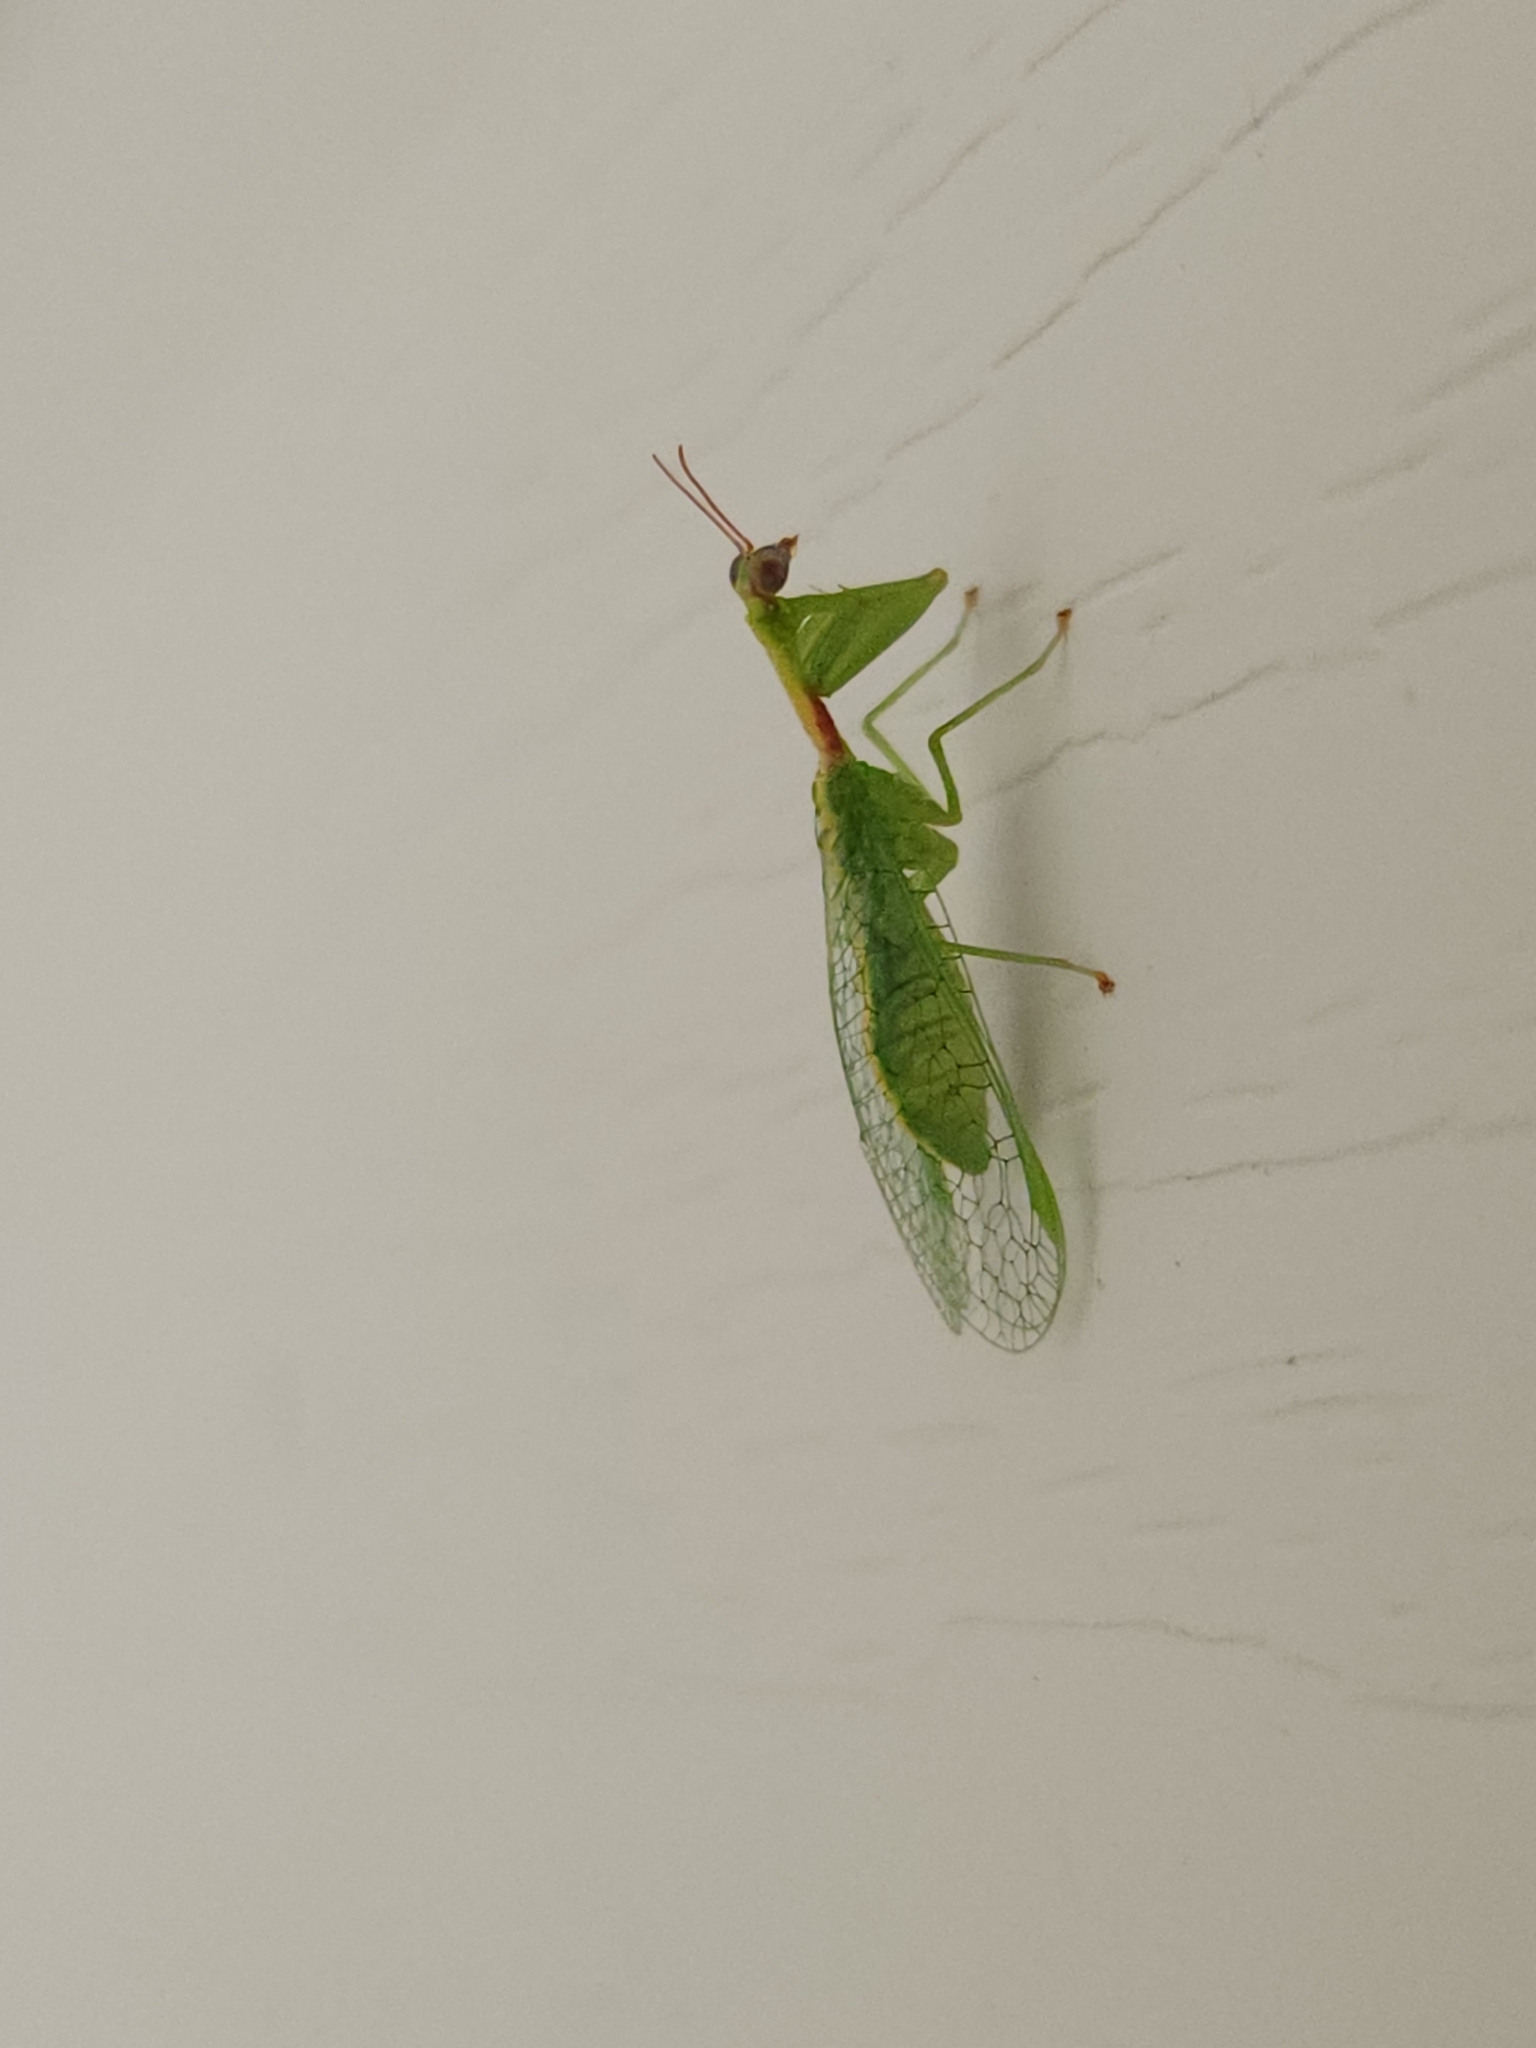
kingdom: Animalia
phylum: Arthropoda
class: Insecta
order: Neuroptera
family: Mantispidae
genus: Zeugomantispa
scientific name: Zeugomantispa minuta
